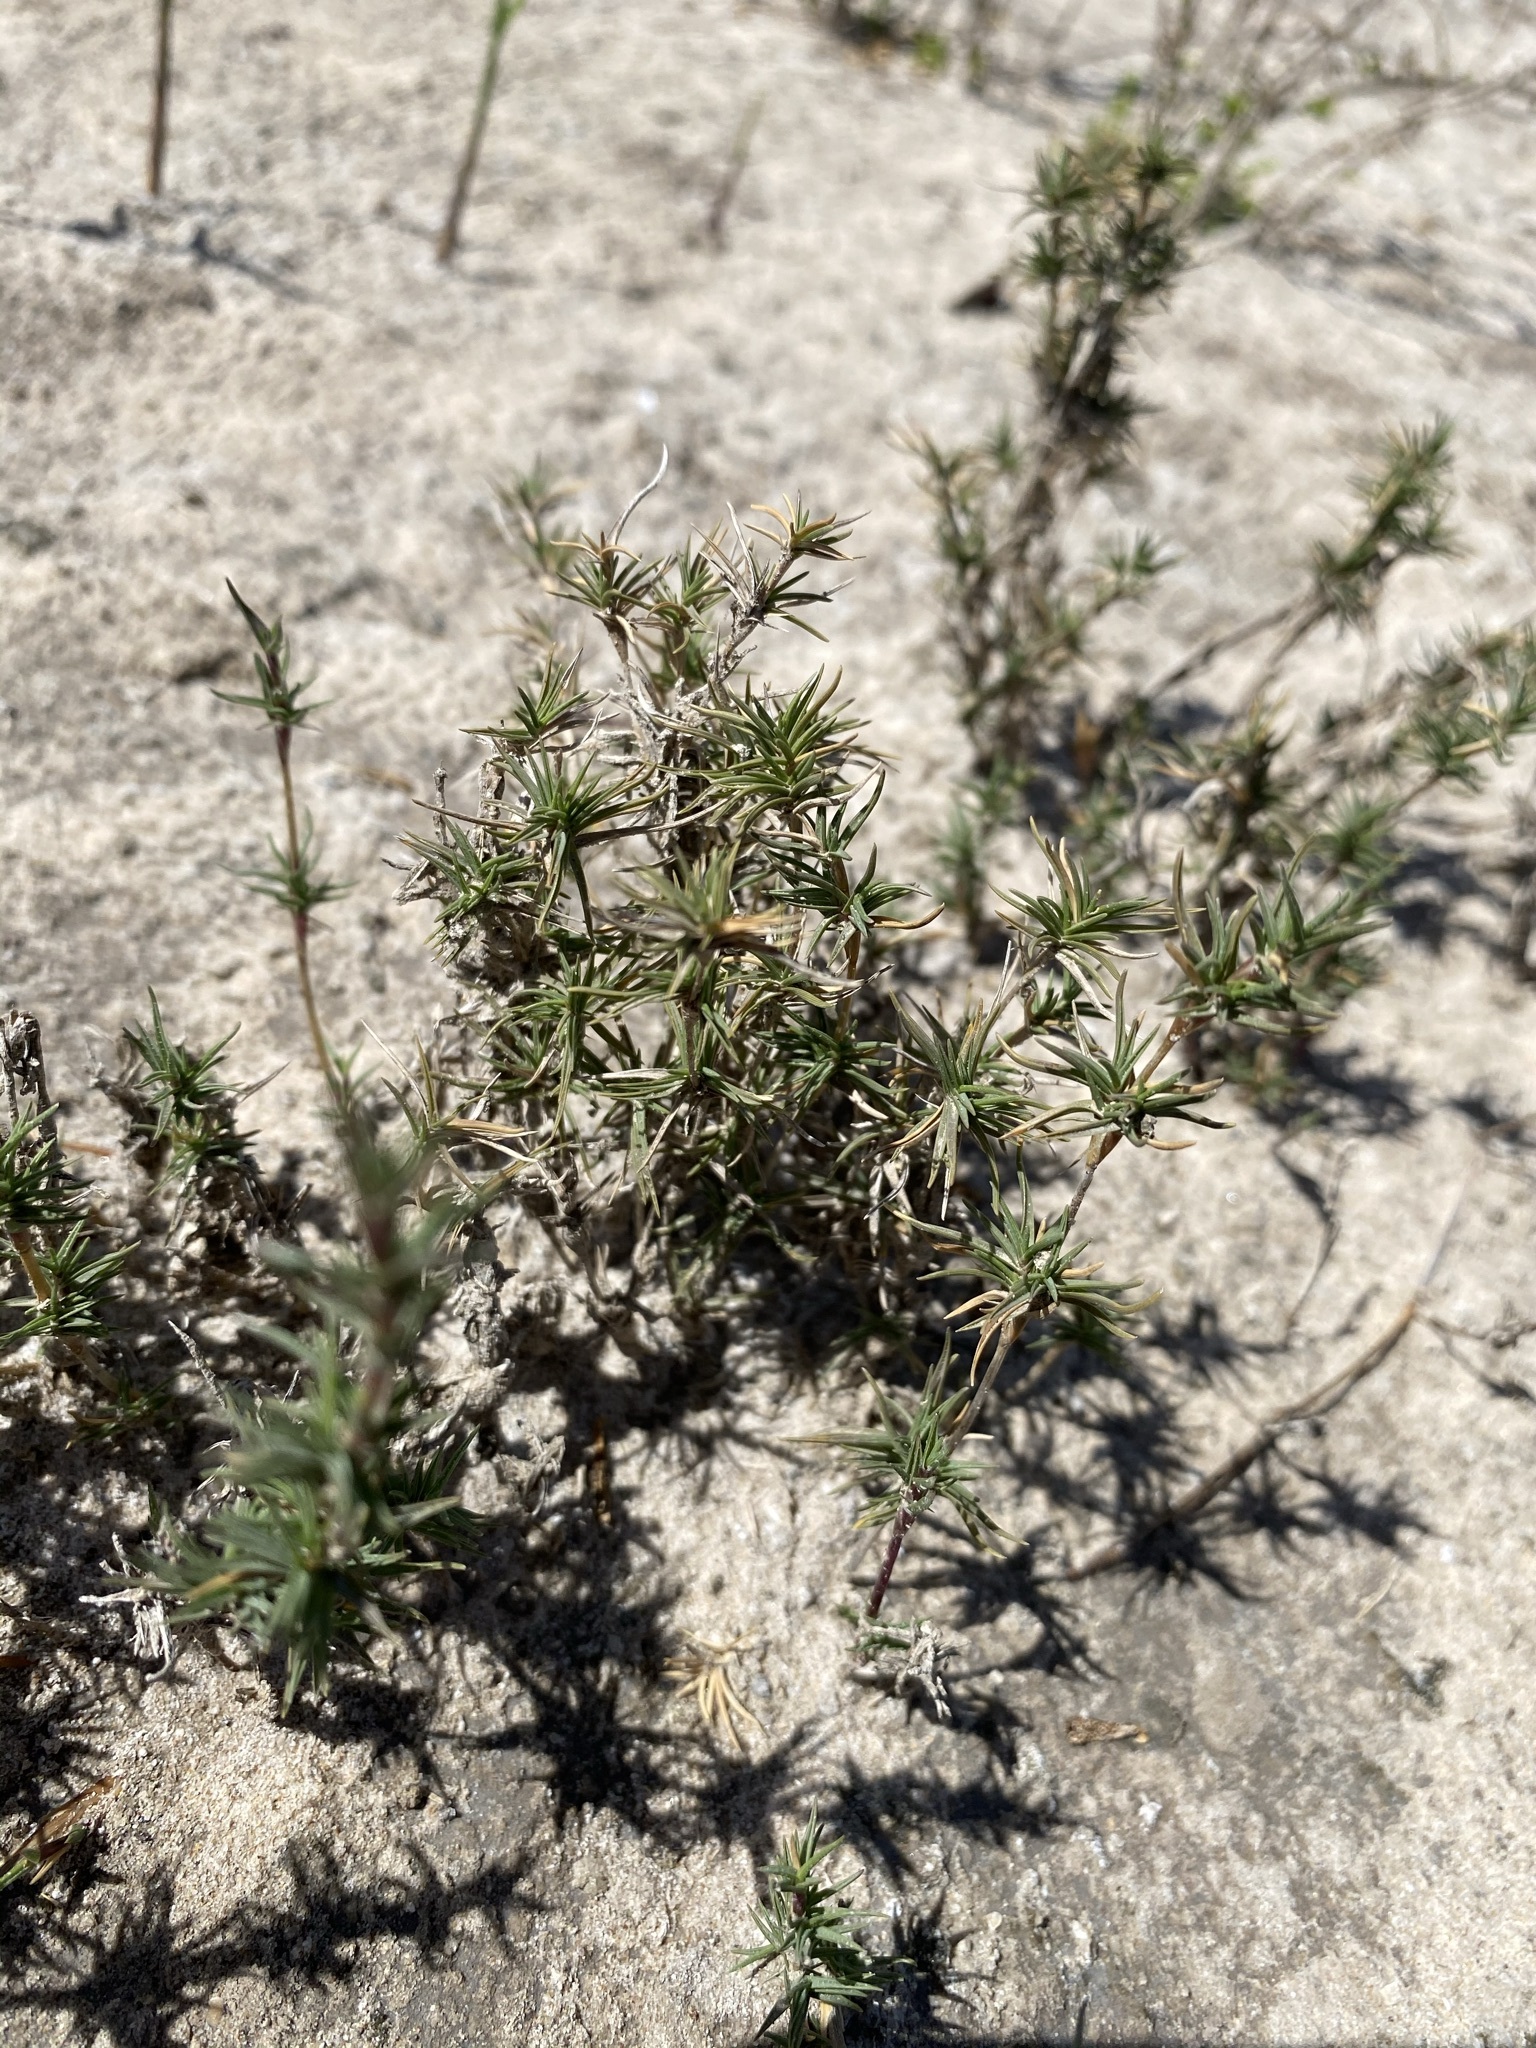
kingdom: Plantae
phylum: Tracheophyta
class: Liliopsida
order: Poales
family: Poaceae
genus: Distichlis
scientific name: Distichlis littoralis
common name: Shore grass
